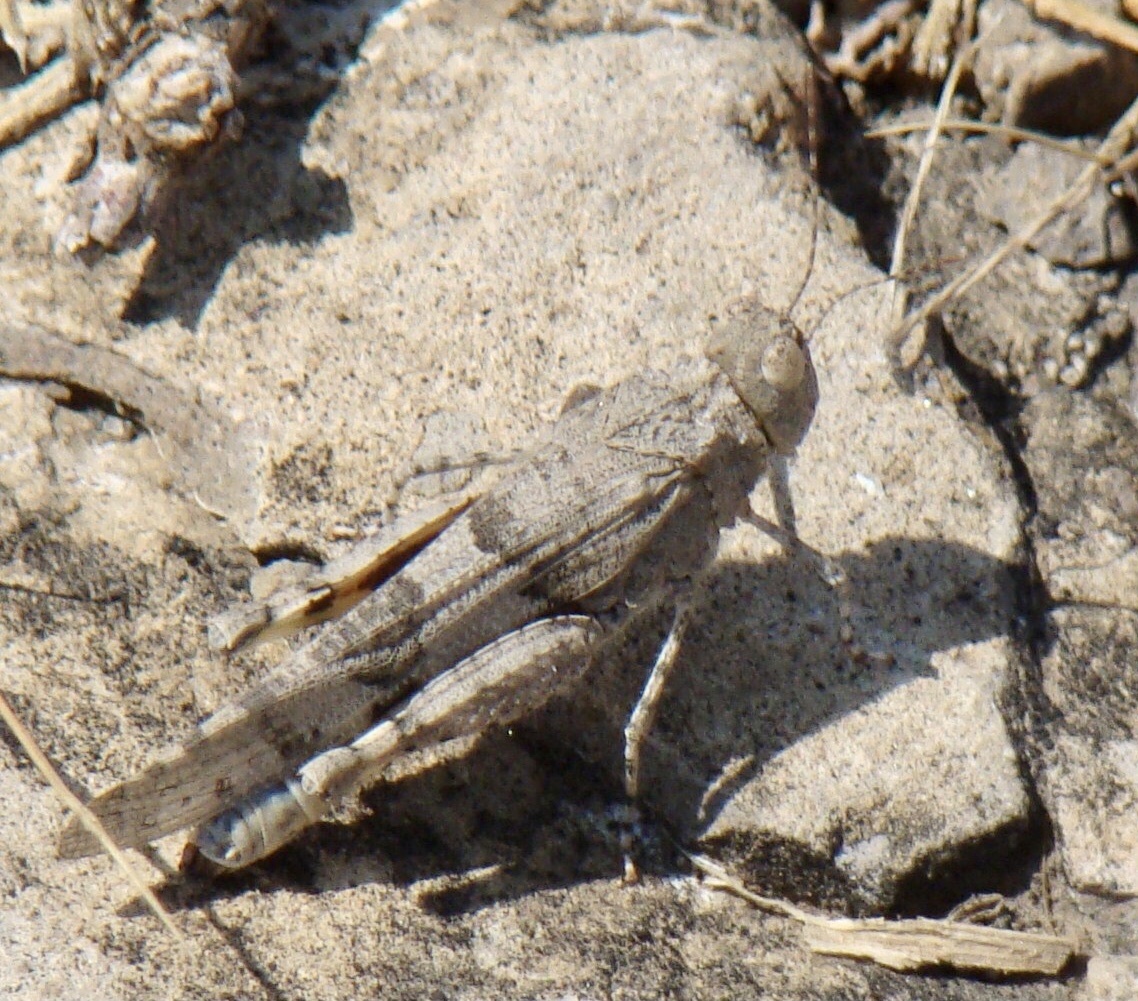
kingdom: Animalia
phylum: Arthropoda
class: Insecta
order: Orthoptera
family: Acrididae
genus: Pycnodictya
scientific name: Pycnodictya galinieri
